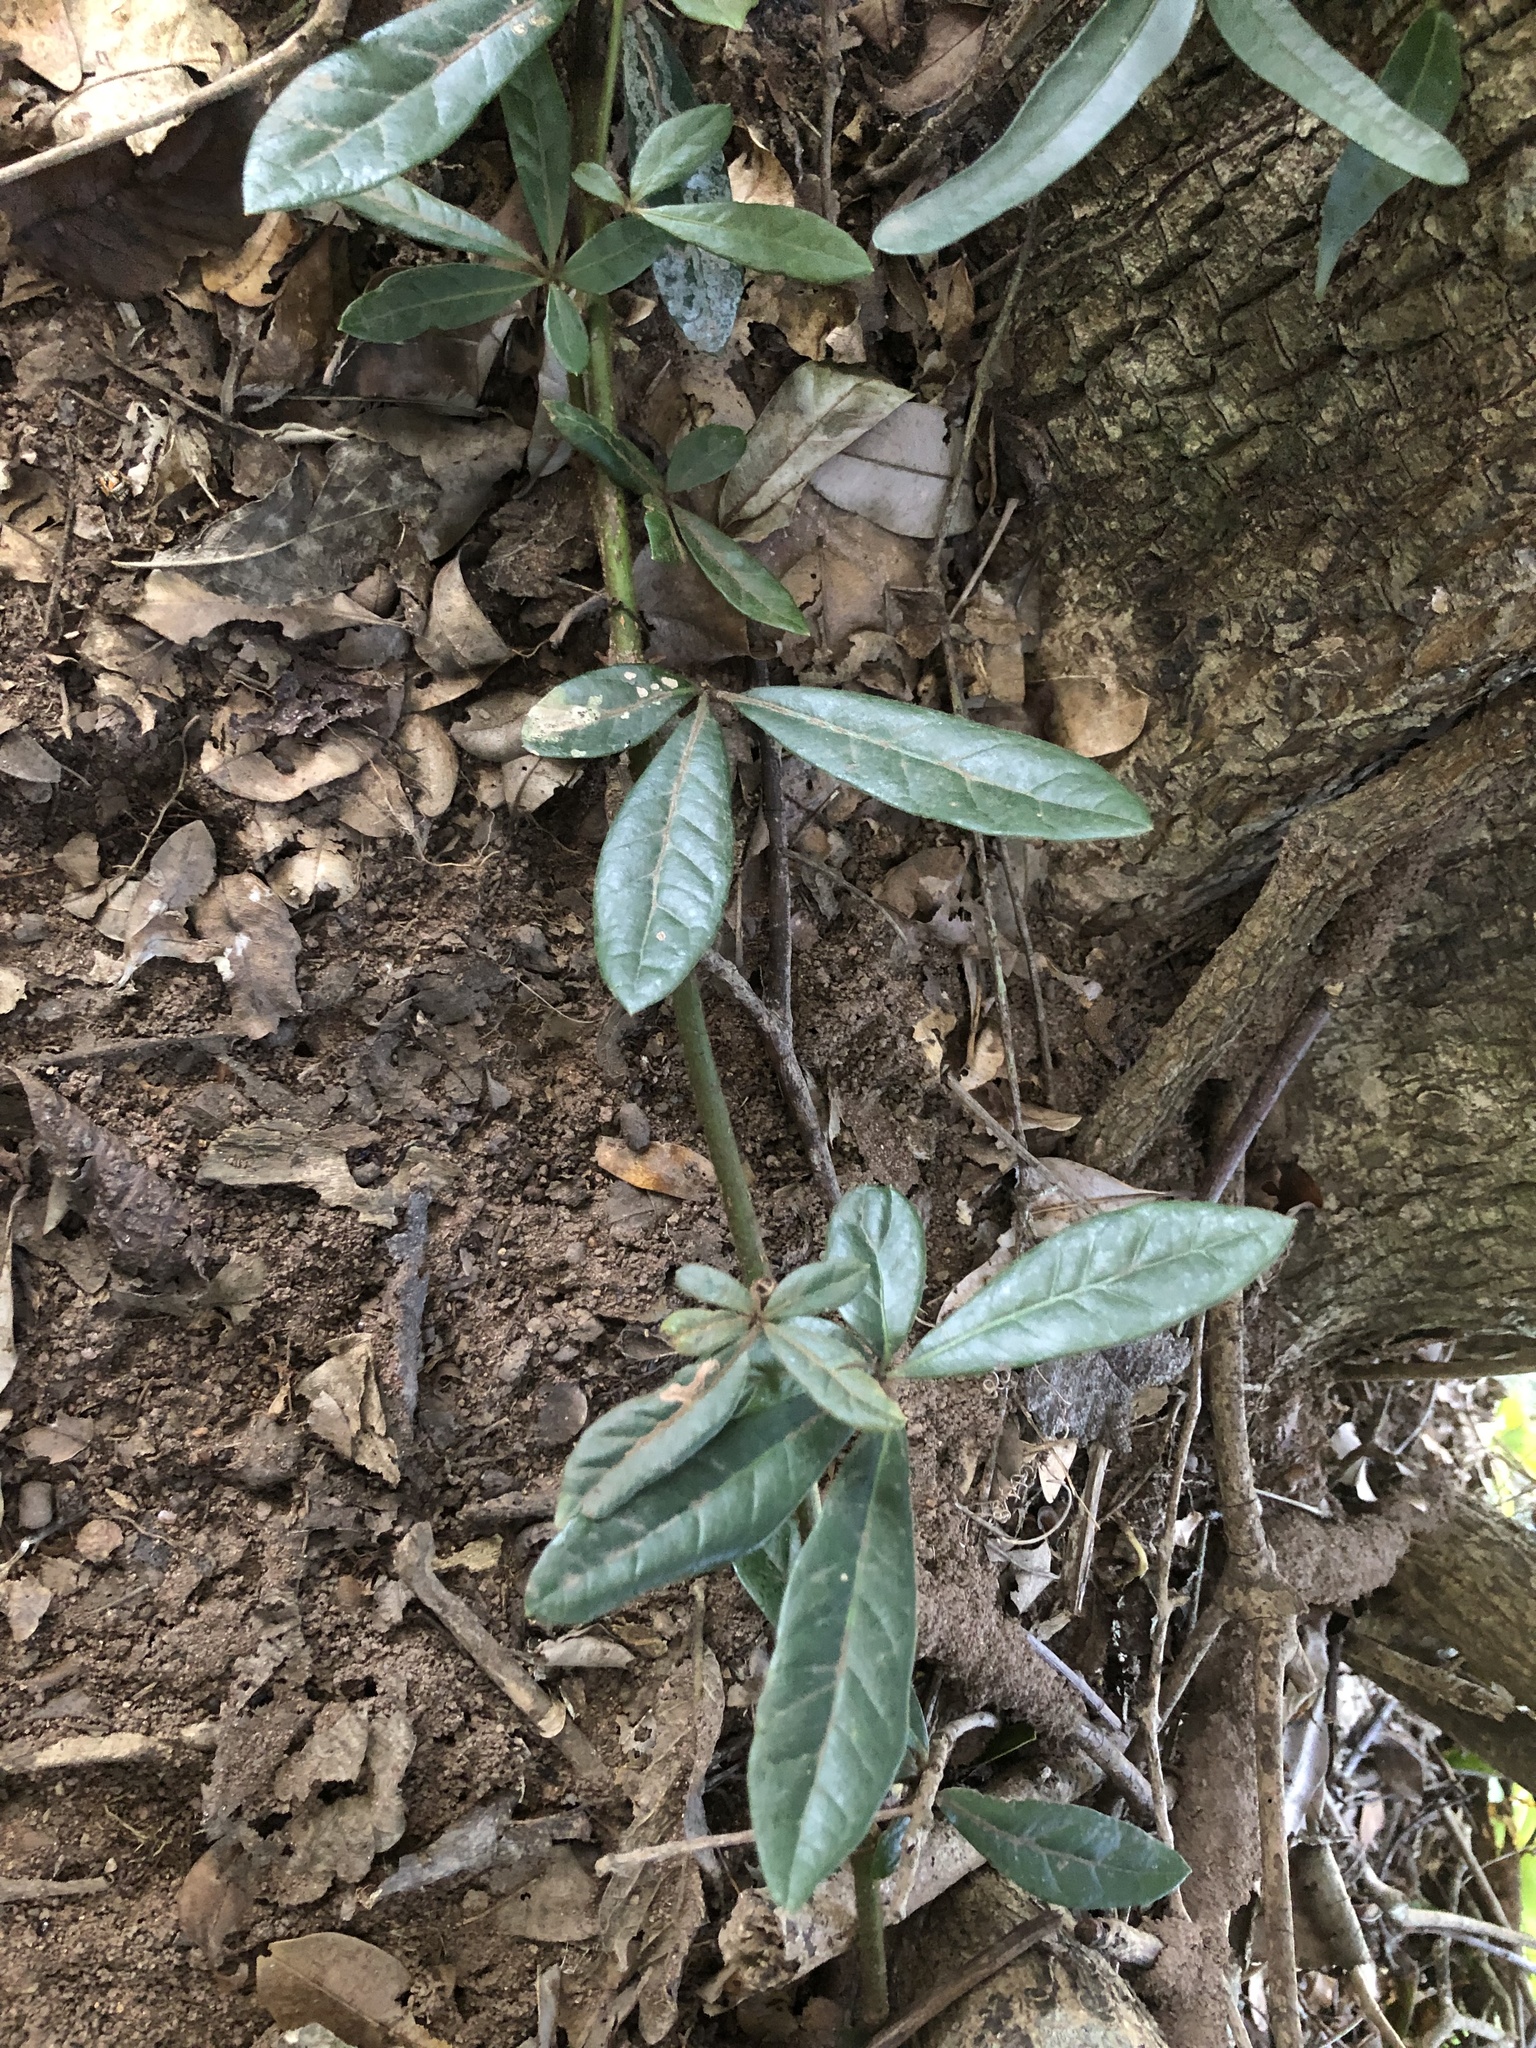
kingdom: Plantae
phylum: Tracheophyta
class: Magnoliopsida
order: Vitales
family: Vitaceae
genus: Rhoicissus
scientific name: Rhoicissus digitata
